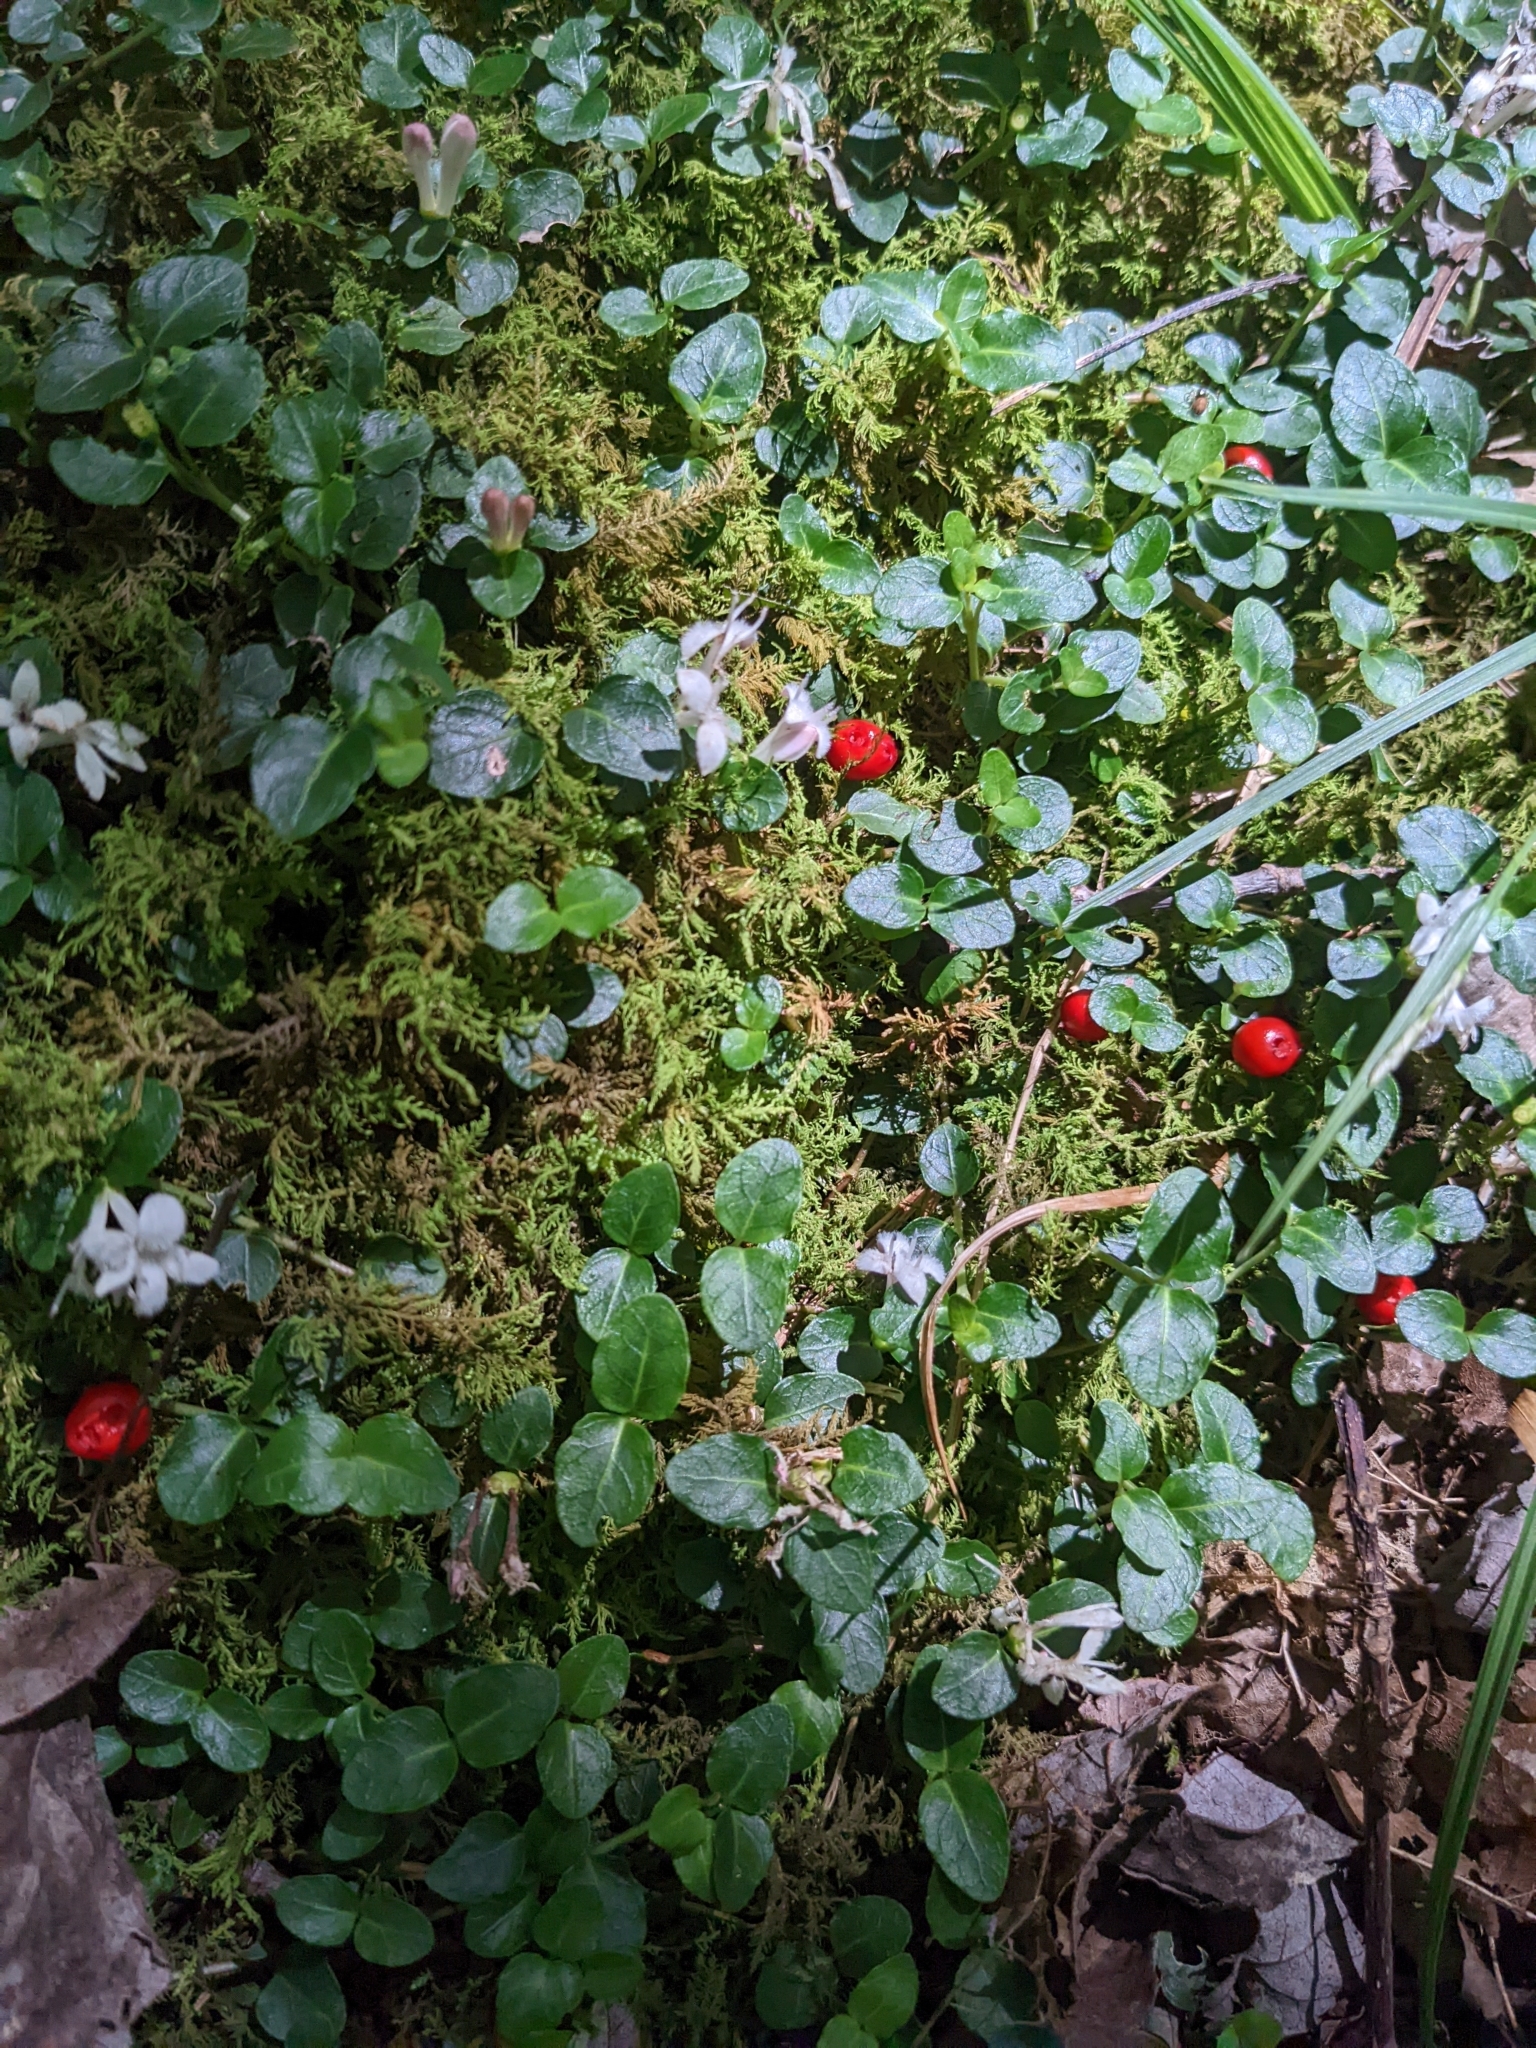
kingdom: Plantae
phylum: Tracheophyta
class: Magnoliopsida
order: Gentianales
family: Rubiaceae
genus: Mitchella
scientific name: Mitchella repens
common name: Partridge-berry
